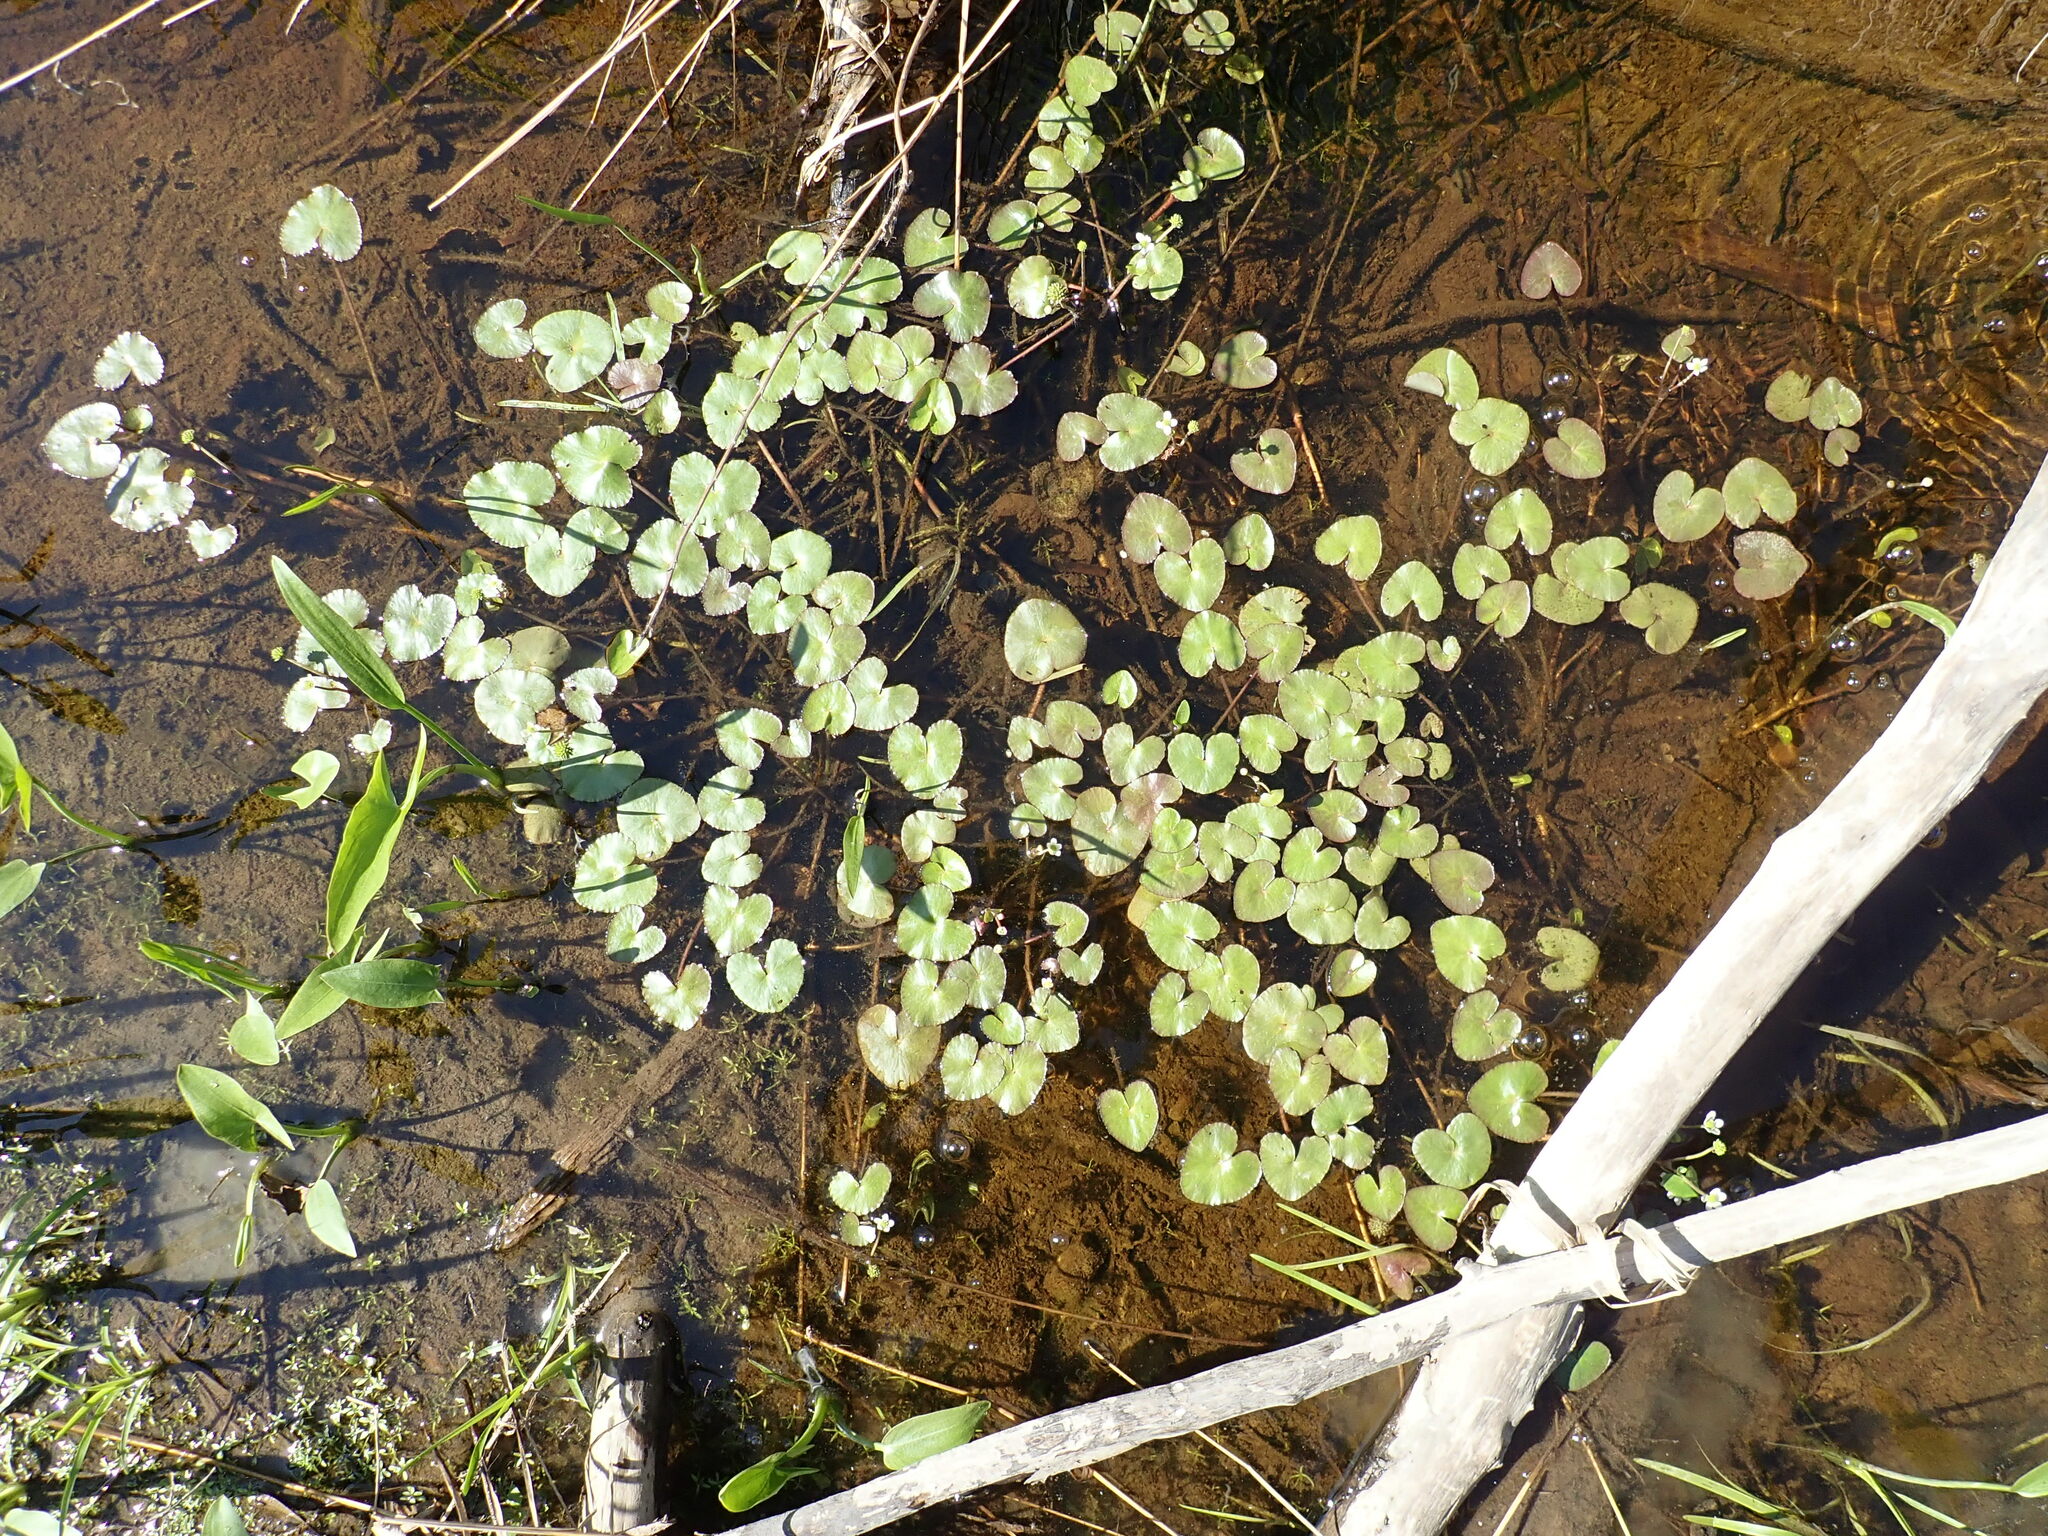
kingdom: Plantae
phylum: Tracheophyta
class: Magnoliopsida
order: Ranunculales
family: Ranunculaceae
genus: Caltha
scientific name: Caltha natans
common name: Floating marsh marigold
